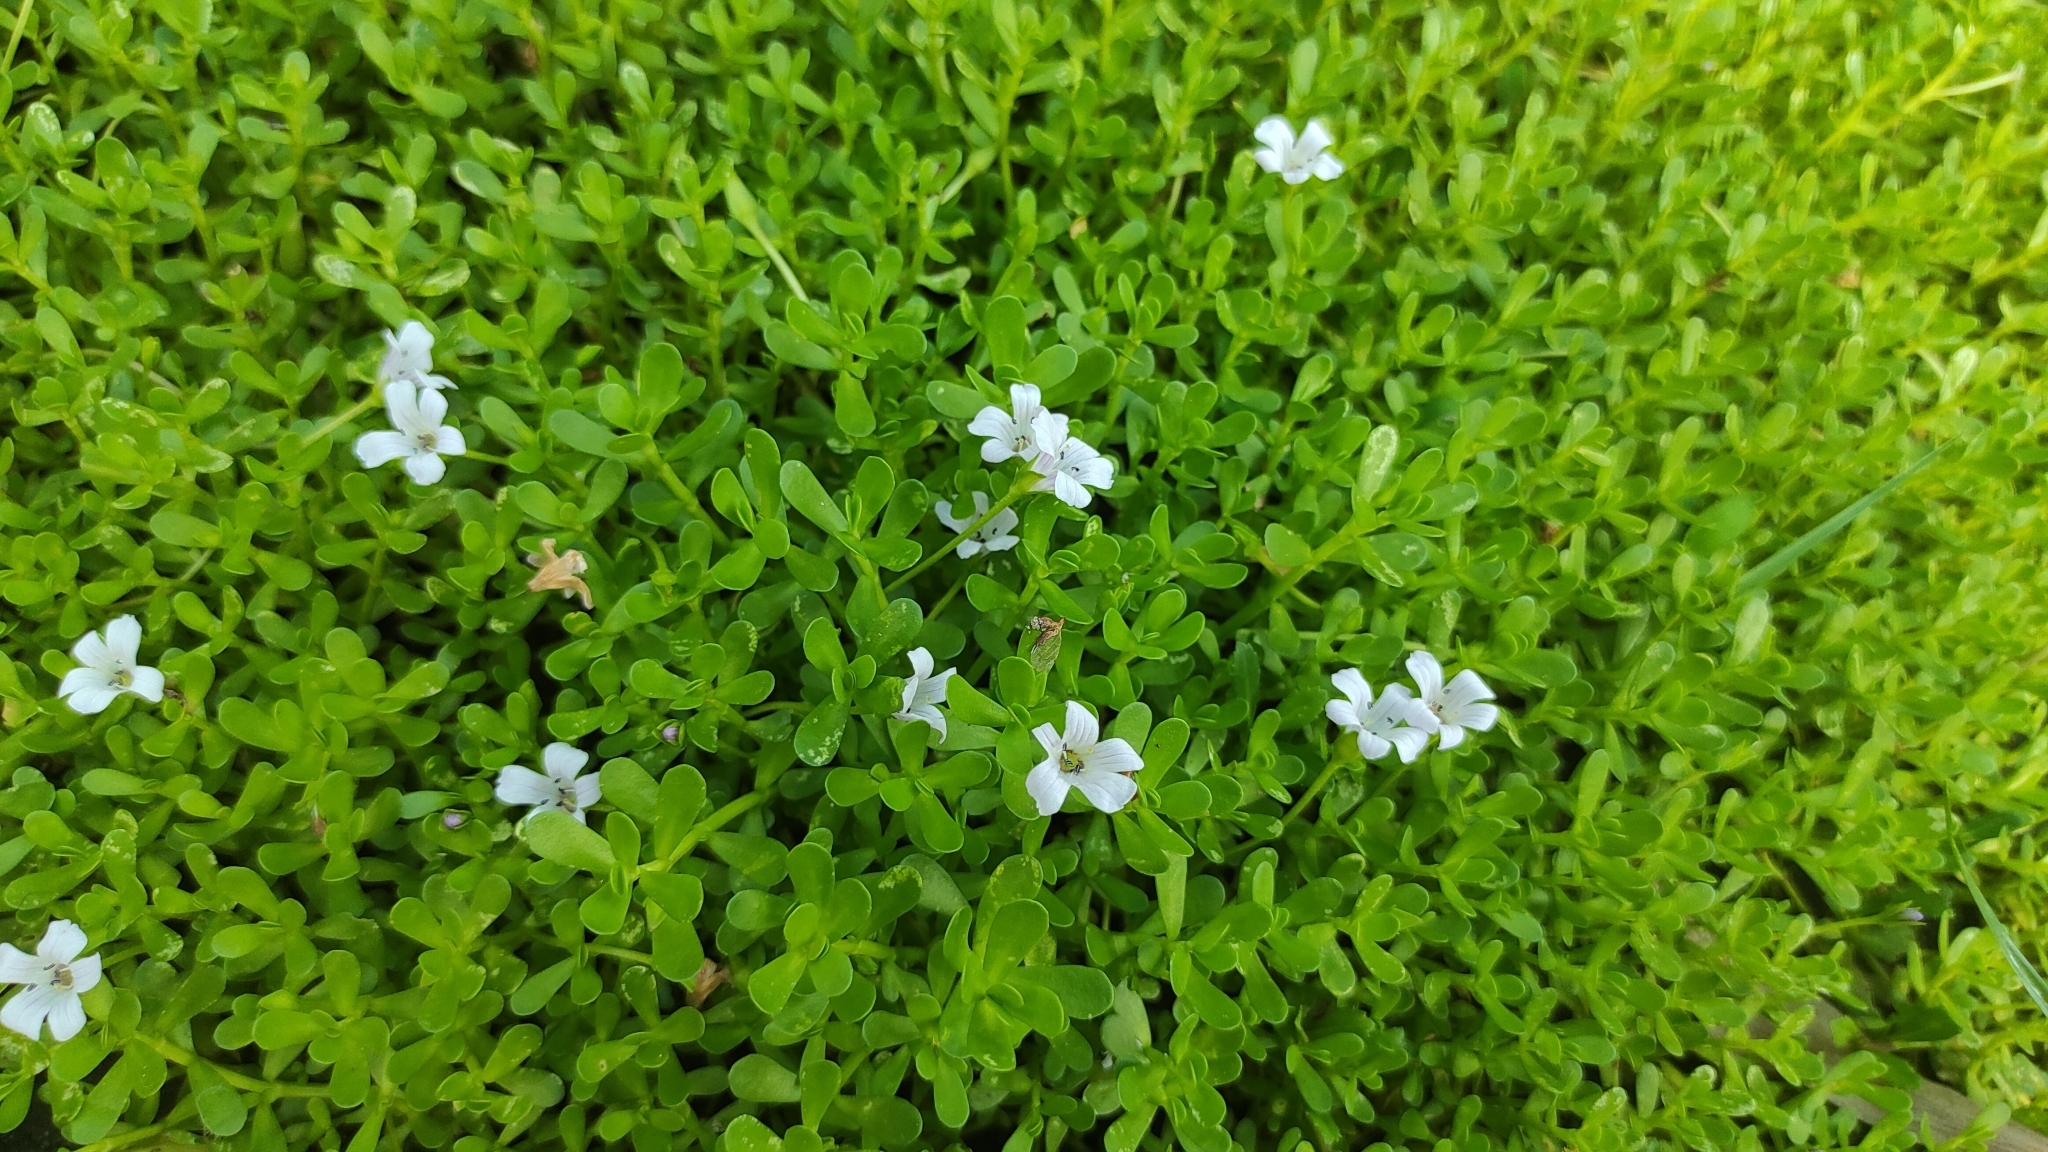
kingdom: Plantae
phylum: Tracheophyta
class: Magnoliopsida
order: Lamiales
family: Plantaginaceae
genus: Bacopa
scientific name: Bacopa monnieri
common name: Indian-pennywort
